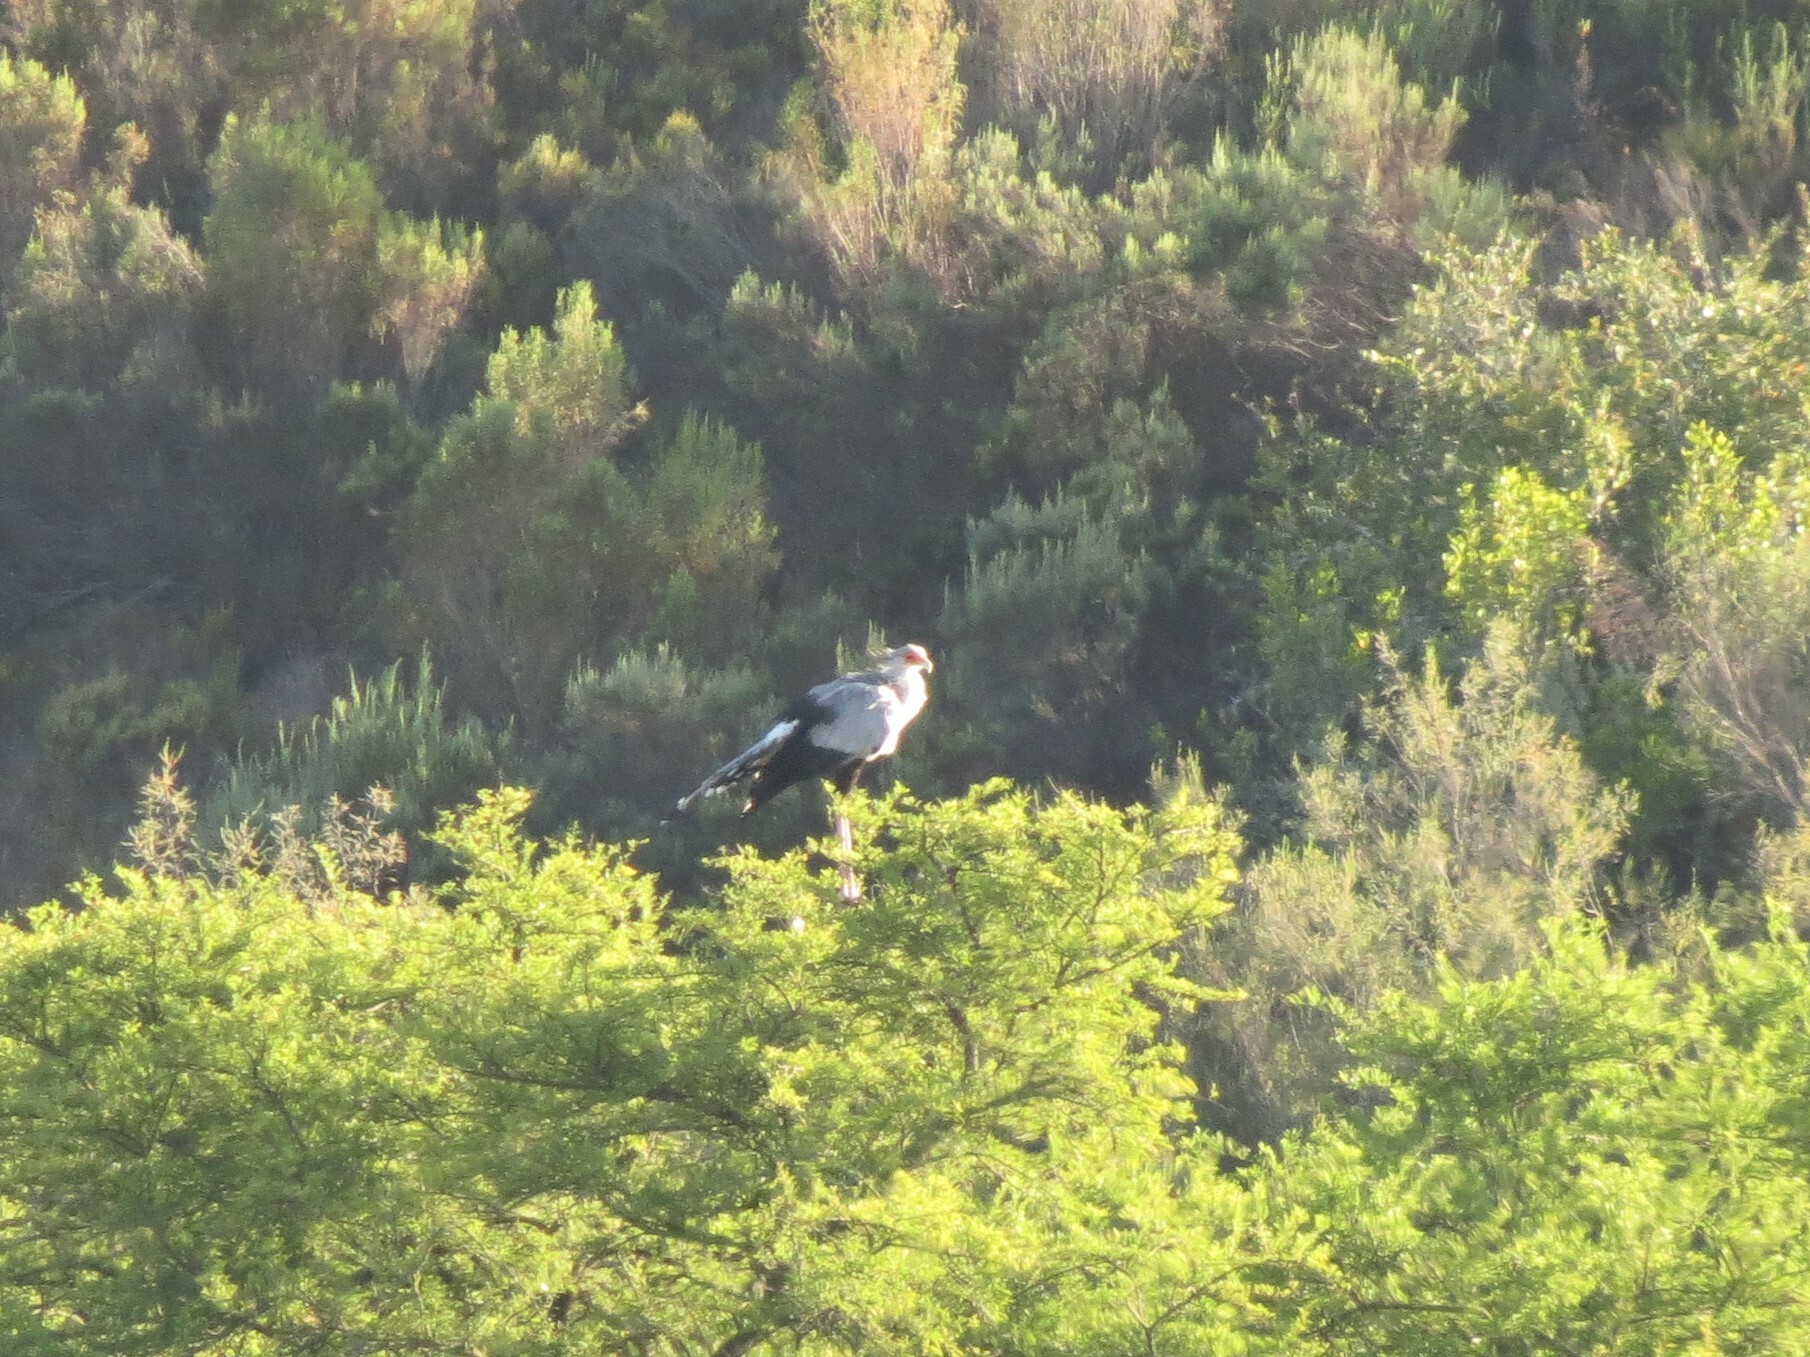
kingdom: Animalia
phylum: Chordata
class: Aves
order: Accipitriformes
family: Sagittariidae
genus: Sagittarius
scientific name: Sagittarius serpentarius
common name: Secretarybird
